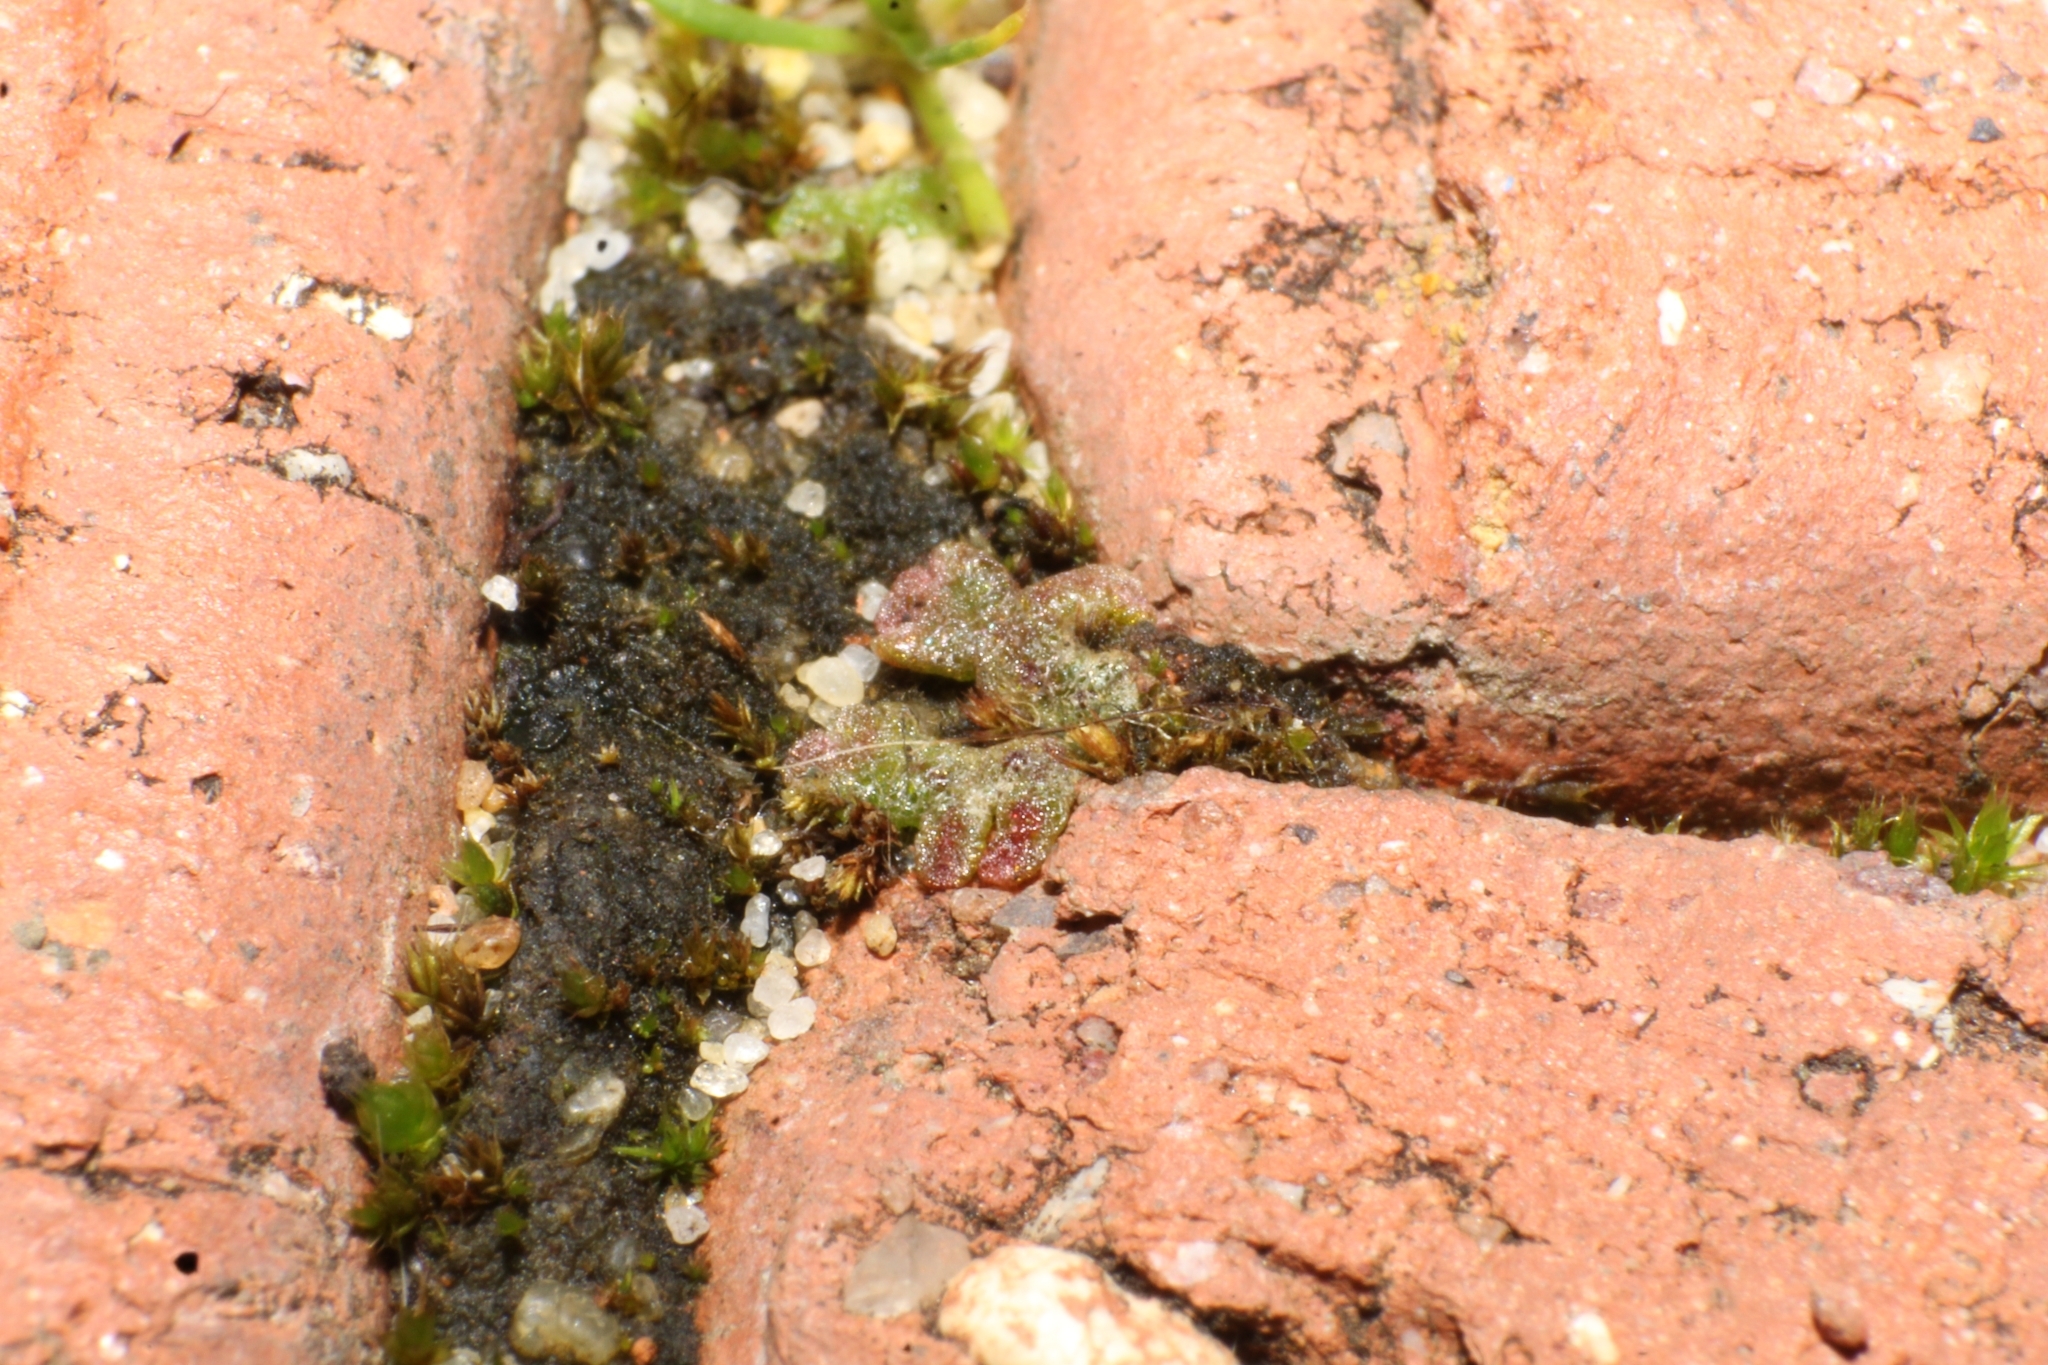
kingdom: Plantae
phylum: Marchantiophyta
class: Marchantiopsida
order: Marchantiales
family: Ricciaceae
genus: Riccia
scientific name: Riccia cavernosa
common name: Cavernous crystalwort
